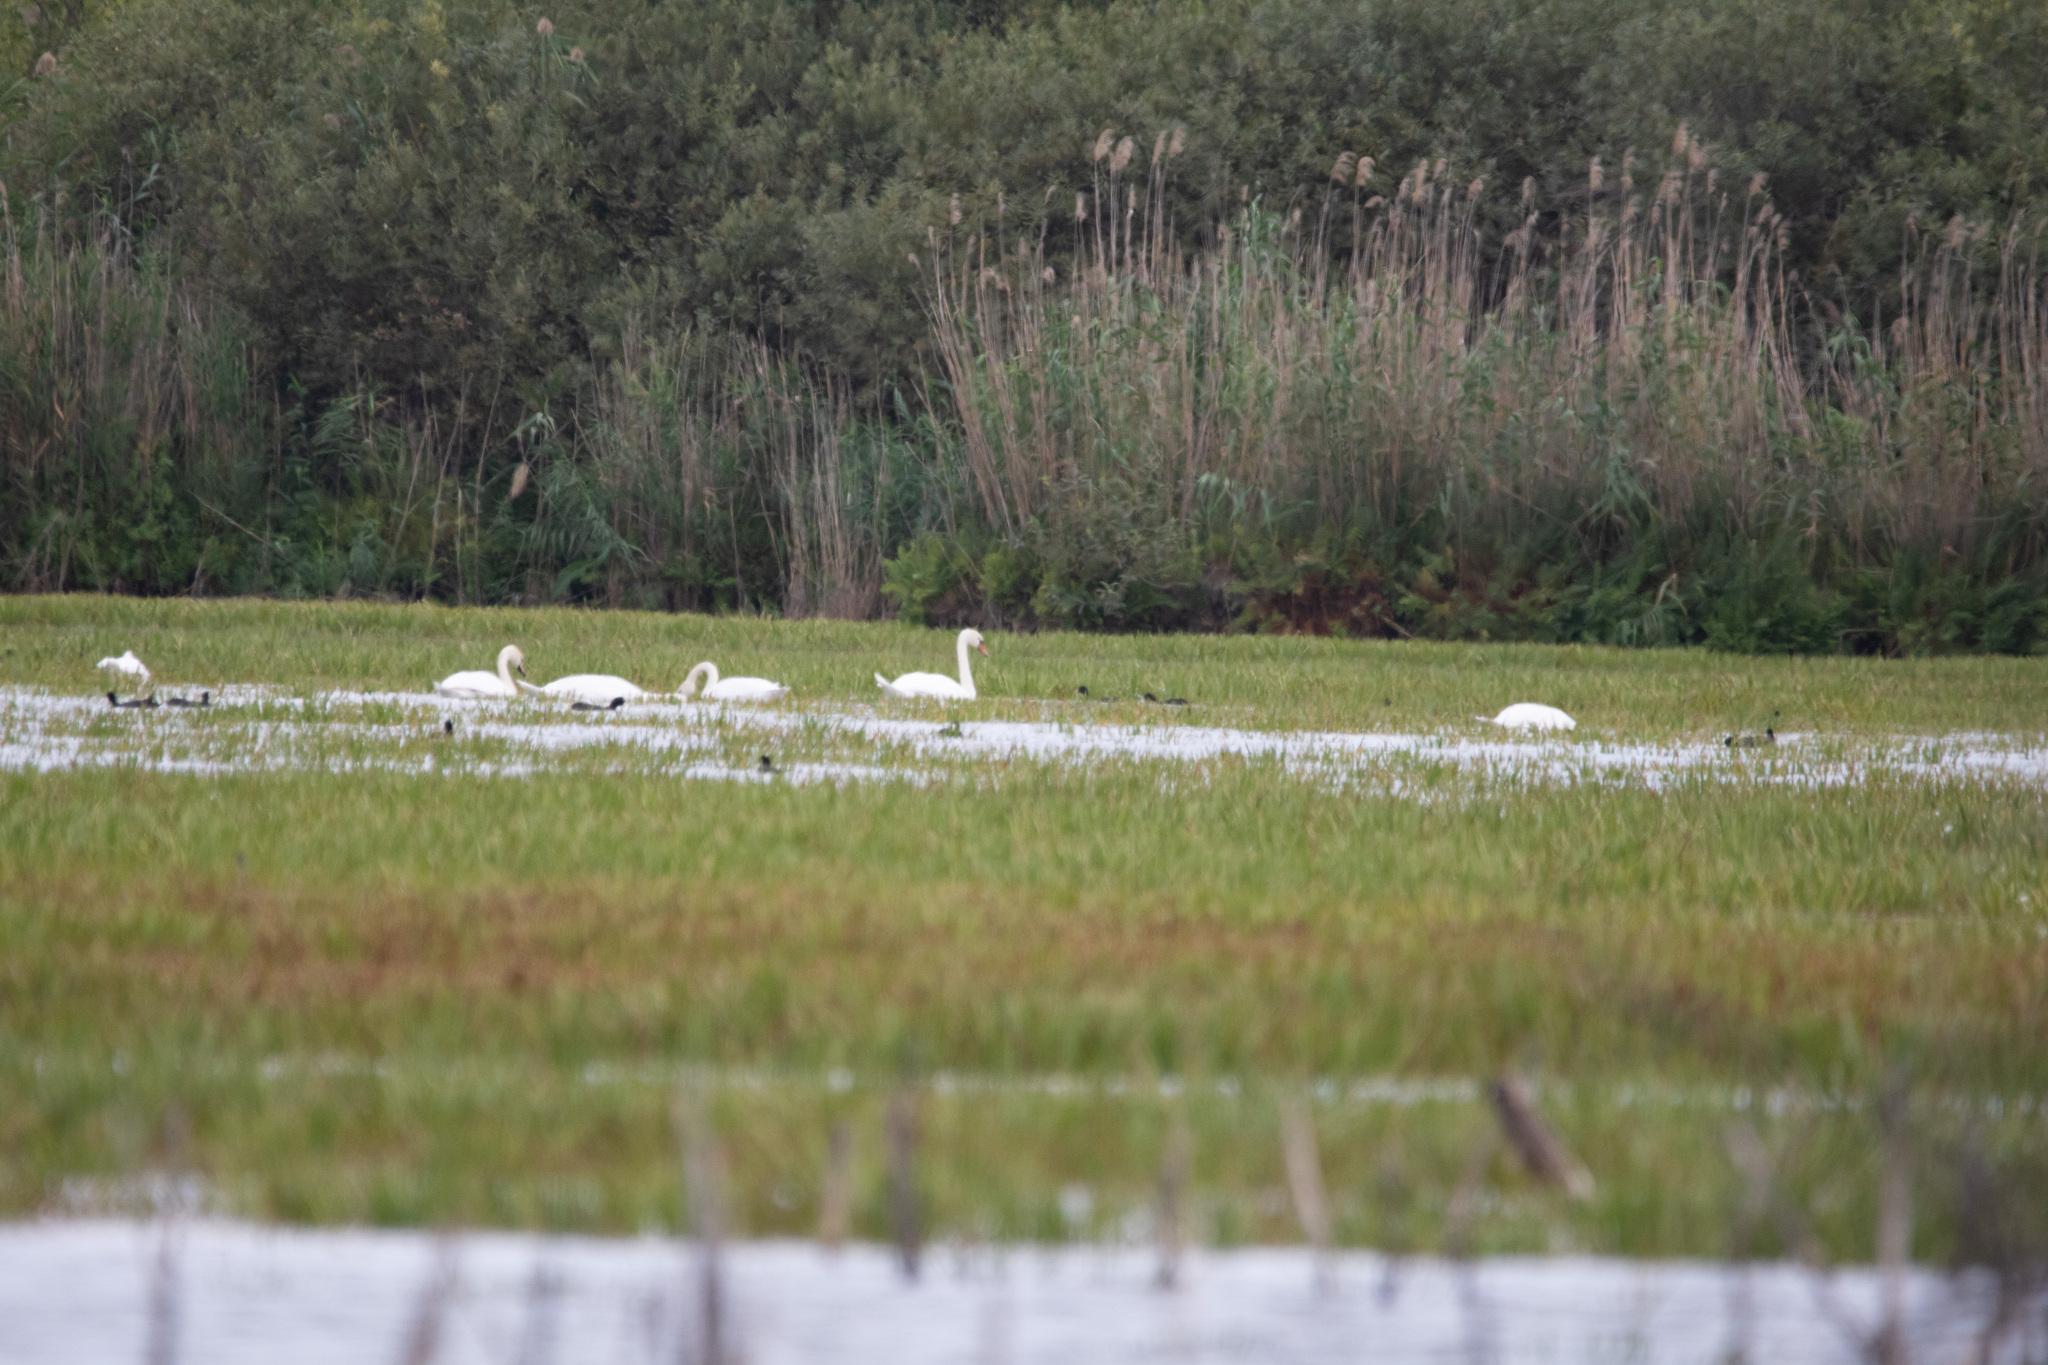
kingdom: Animalia
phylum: Chordata
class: Aves
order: Anseriformes
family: Anatidae
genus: Cygnus
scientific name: Cygnus olor
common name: Mute swan
